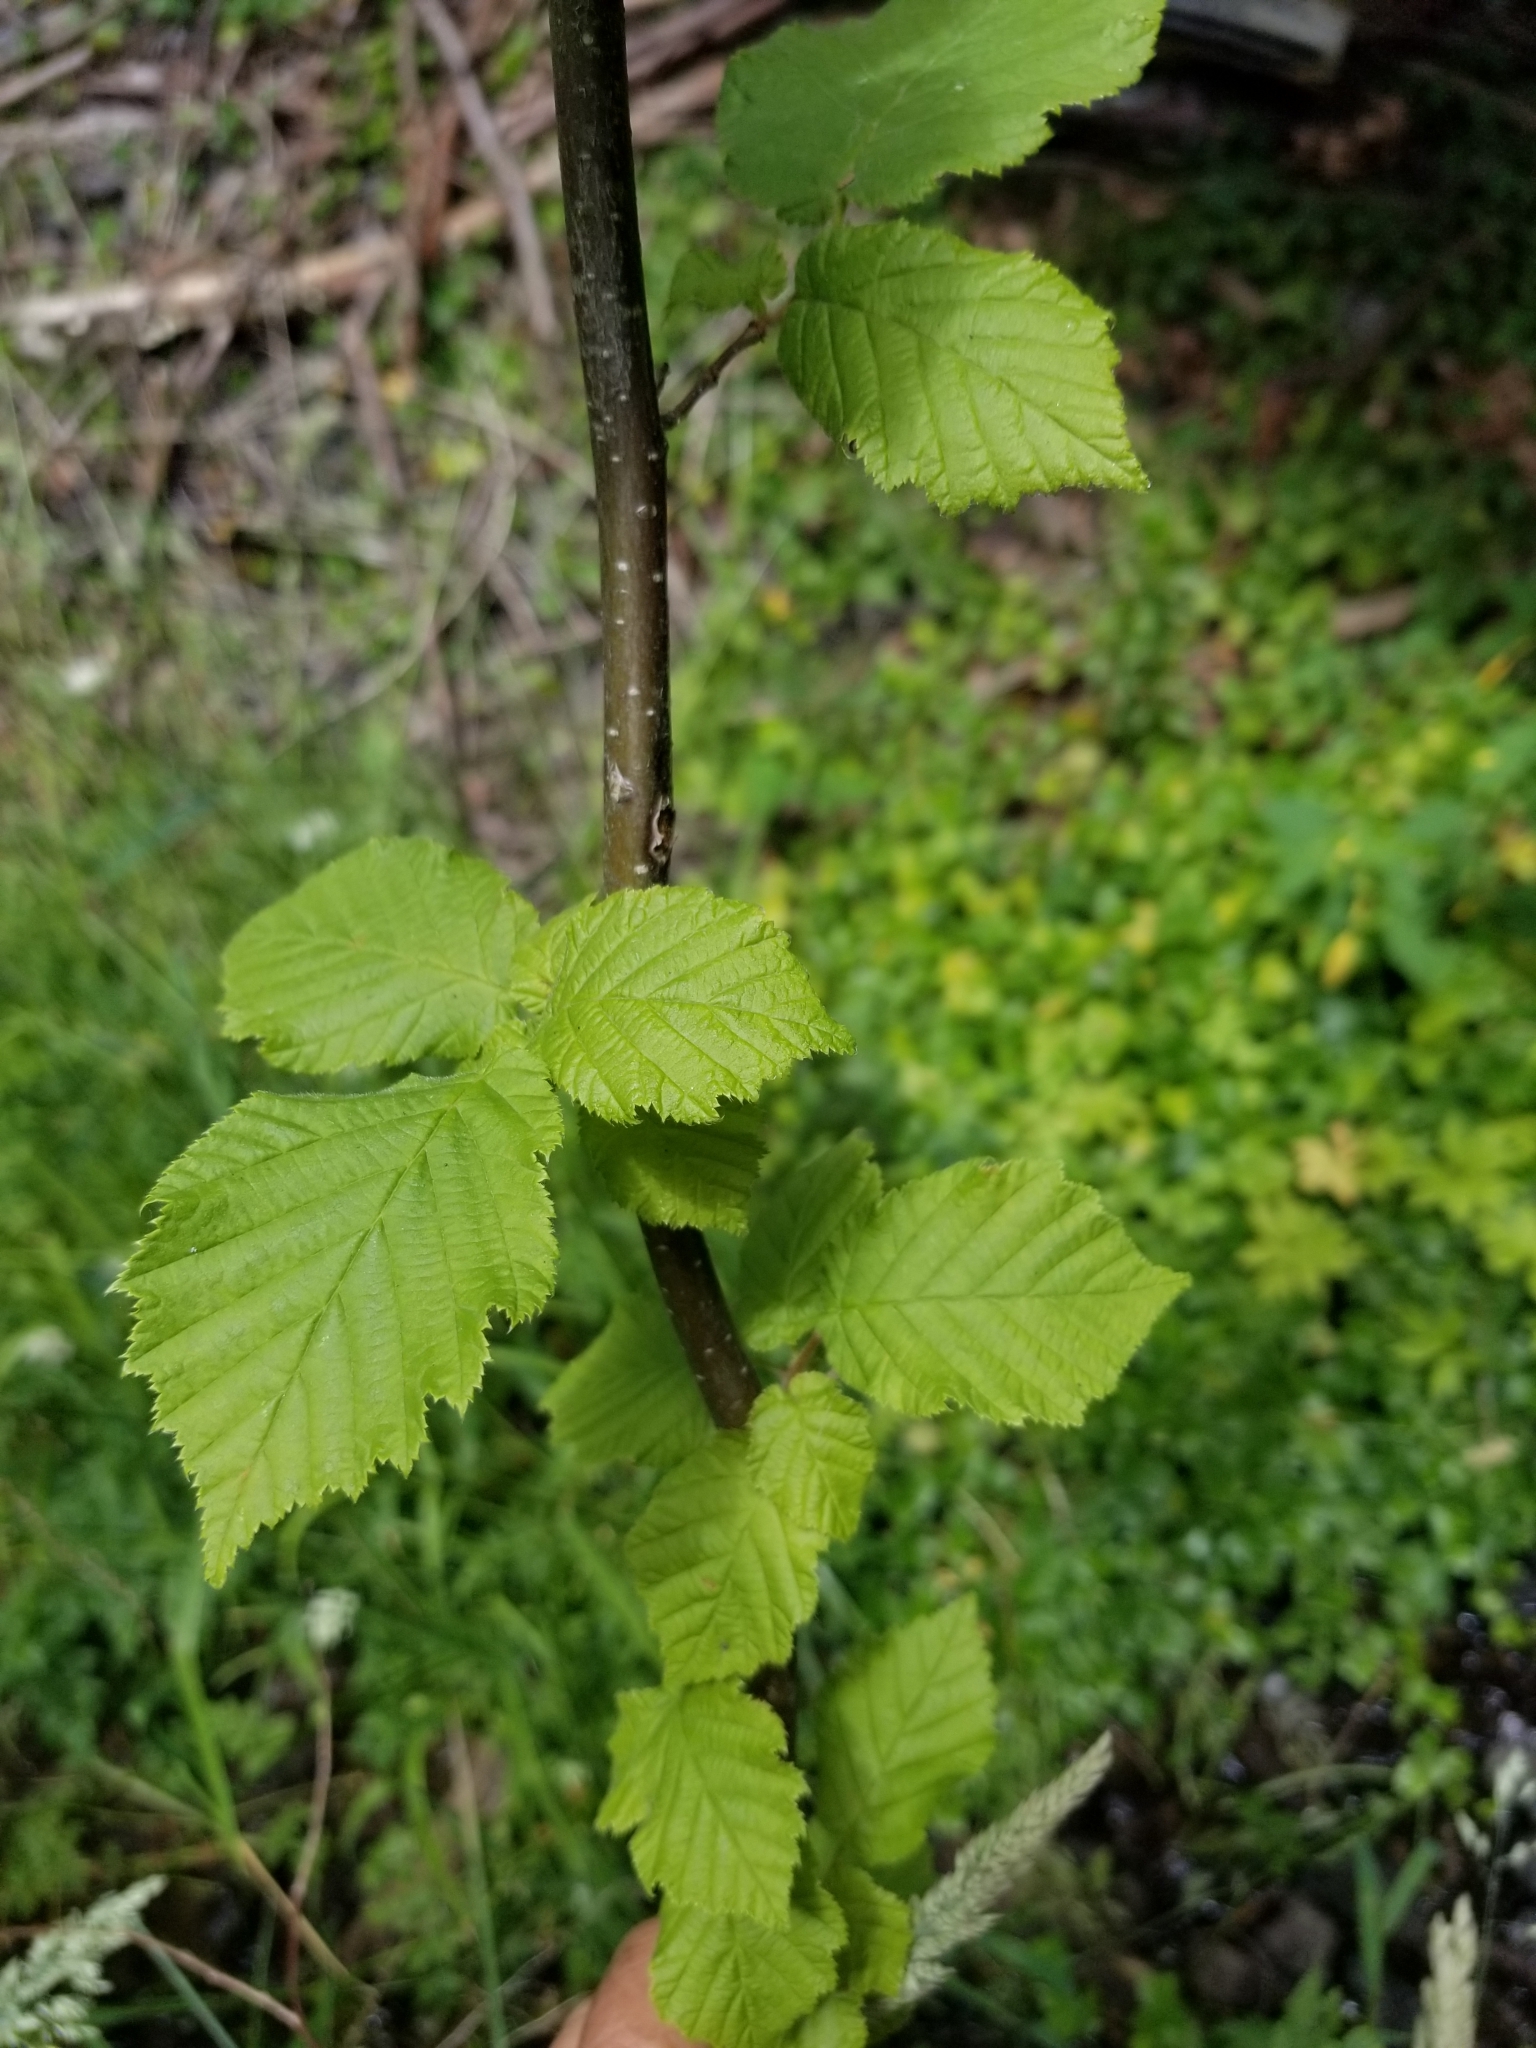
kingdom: Plantae
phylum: Tracheophyta
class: Magnoliopsida
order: Fagales
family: Betulaceae
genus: Corylus
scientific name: Corylus cornuta
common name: Beaked hazel
